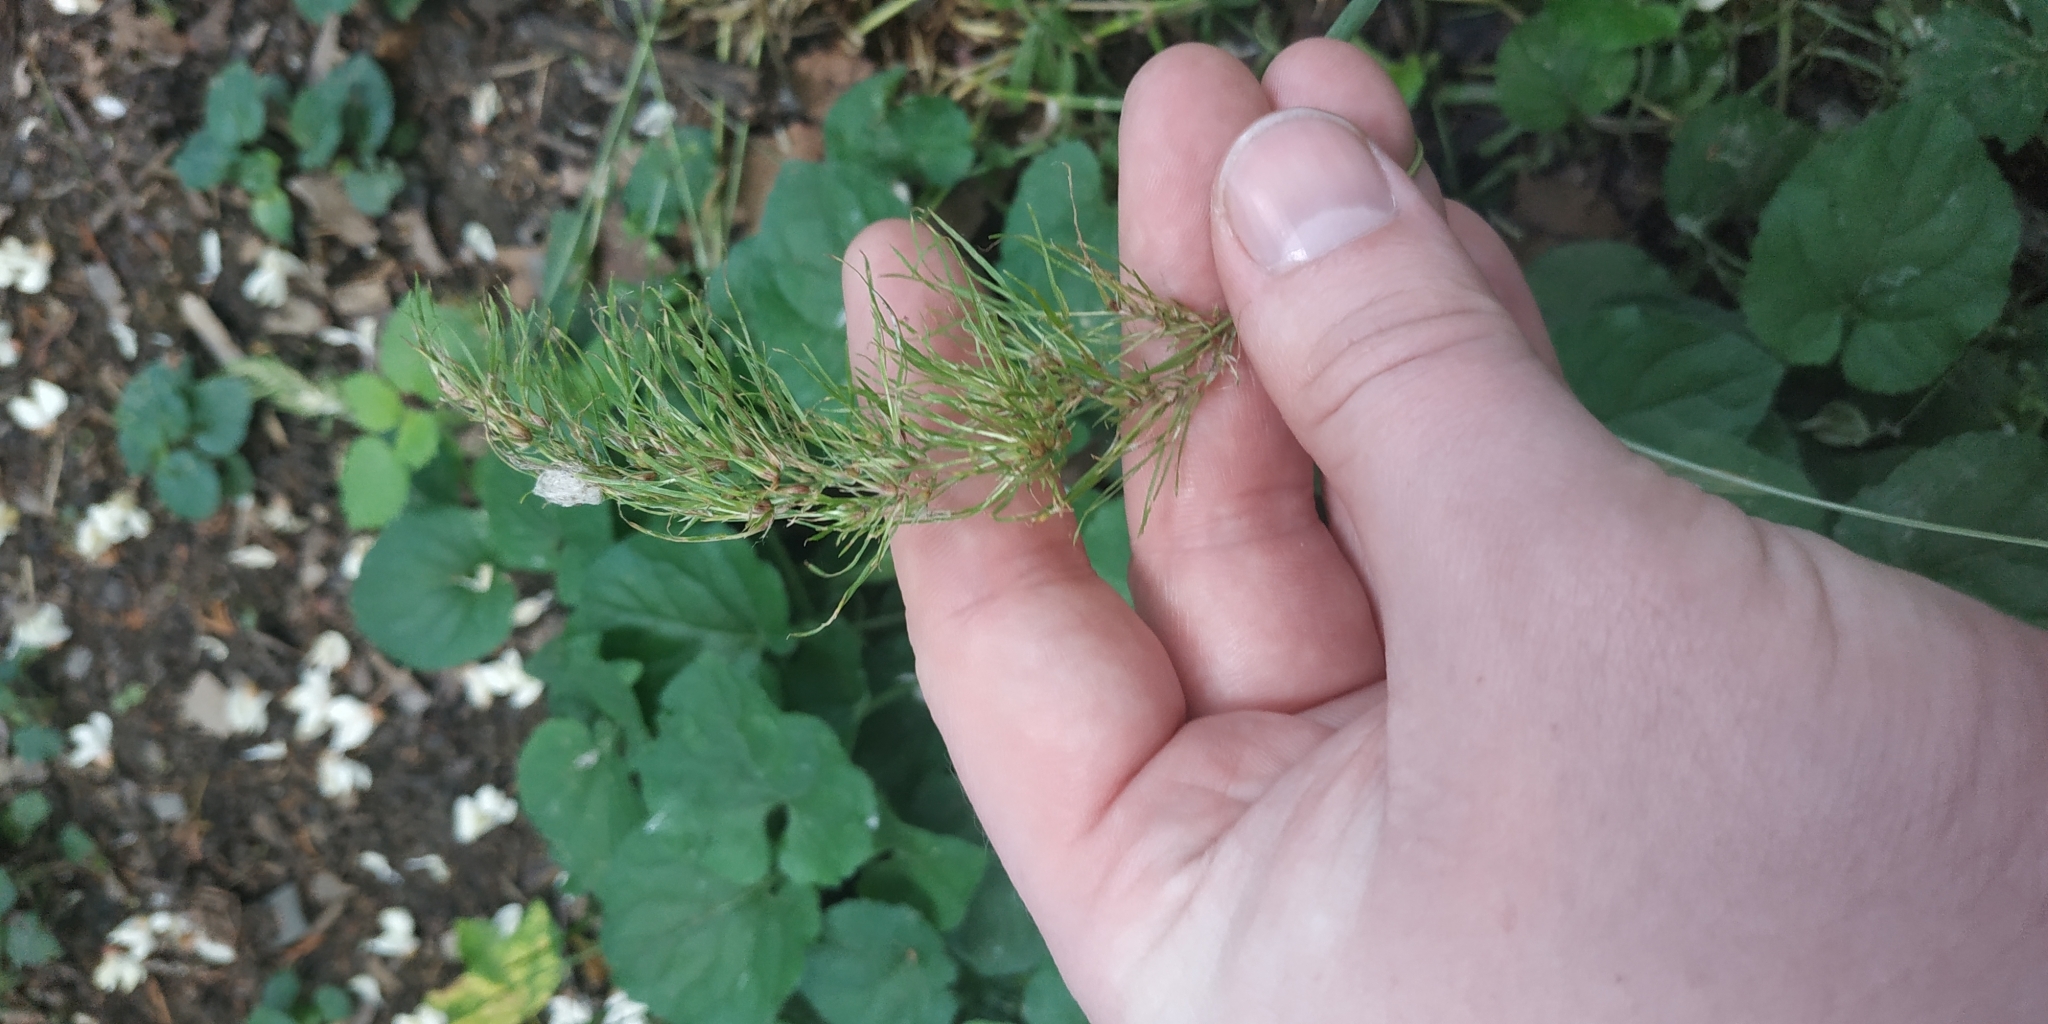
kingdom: Plantae
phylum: Tracheophyta
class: Liliopsida
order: Poales
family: Poaceae
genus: Poa
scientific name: Poa bulbosa
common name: Bulbous bluegrass
